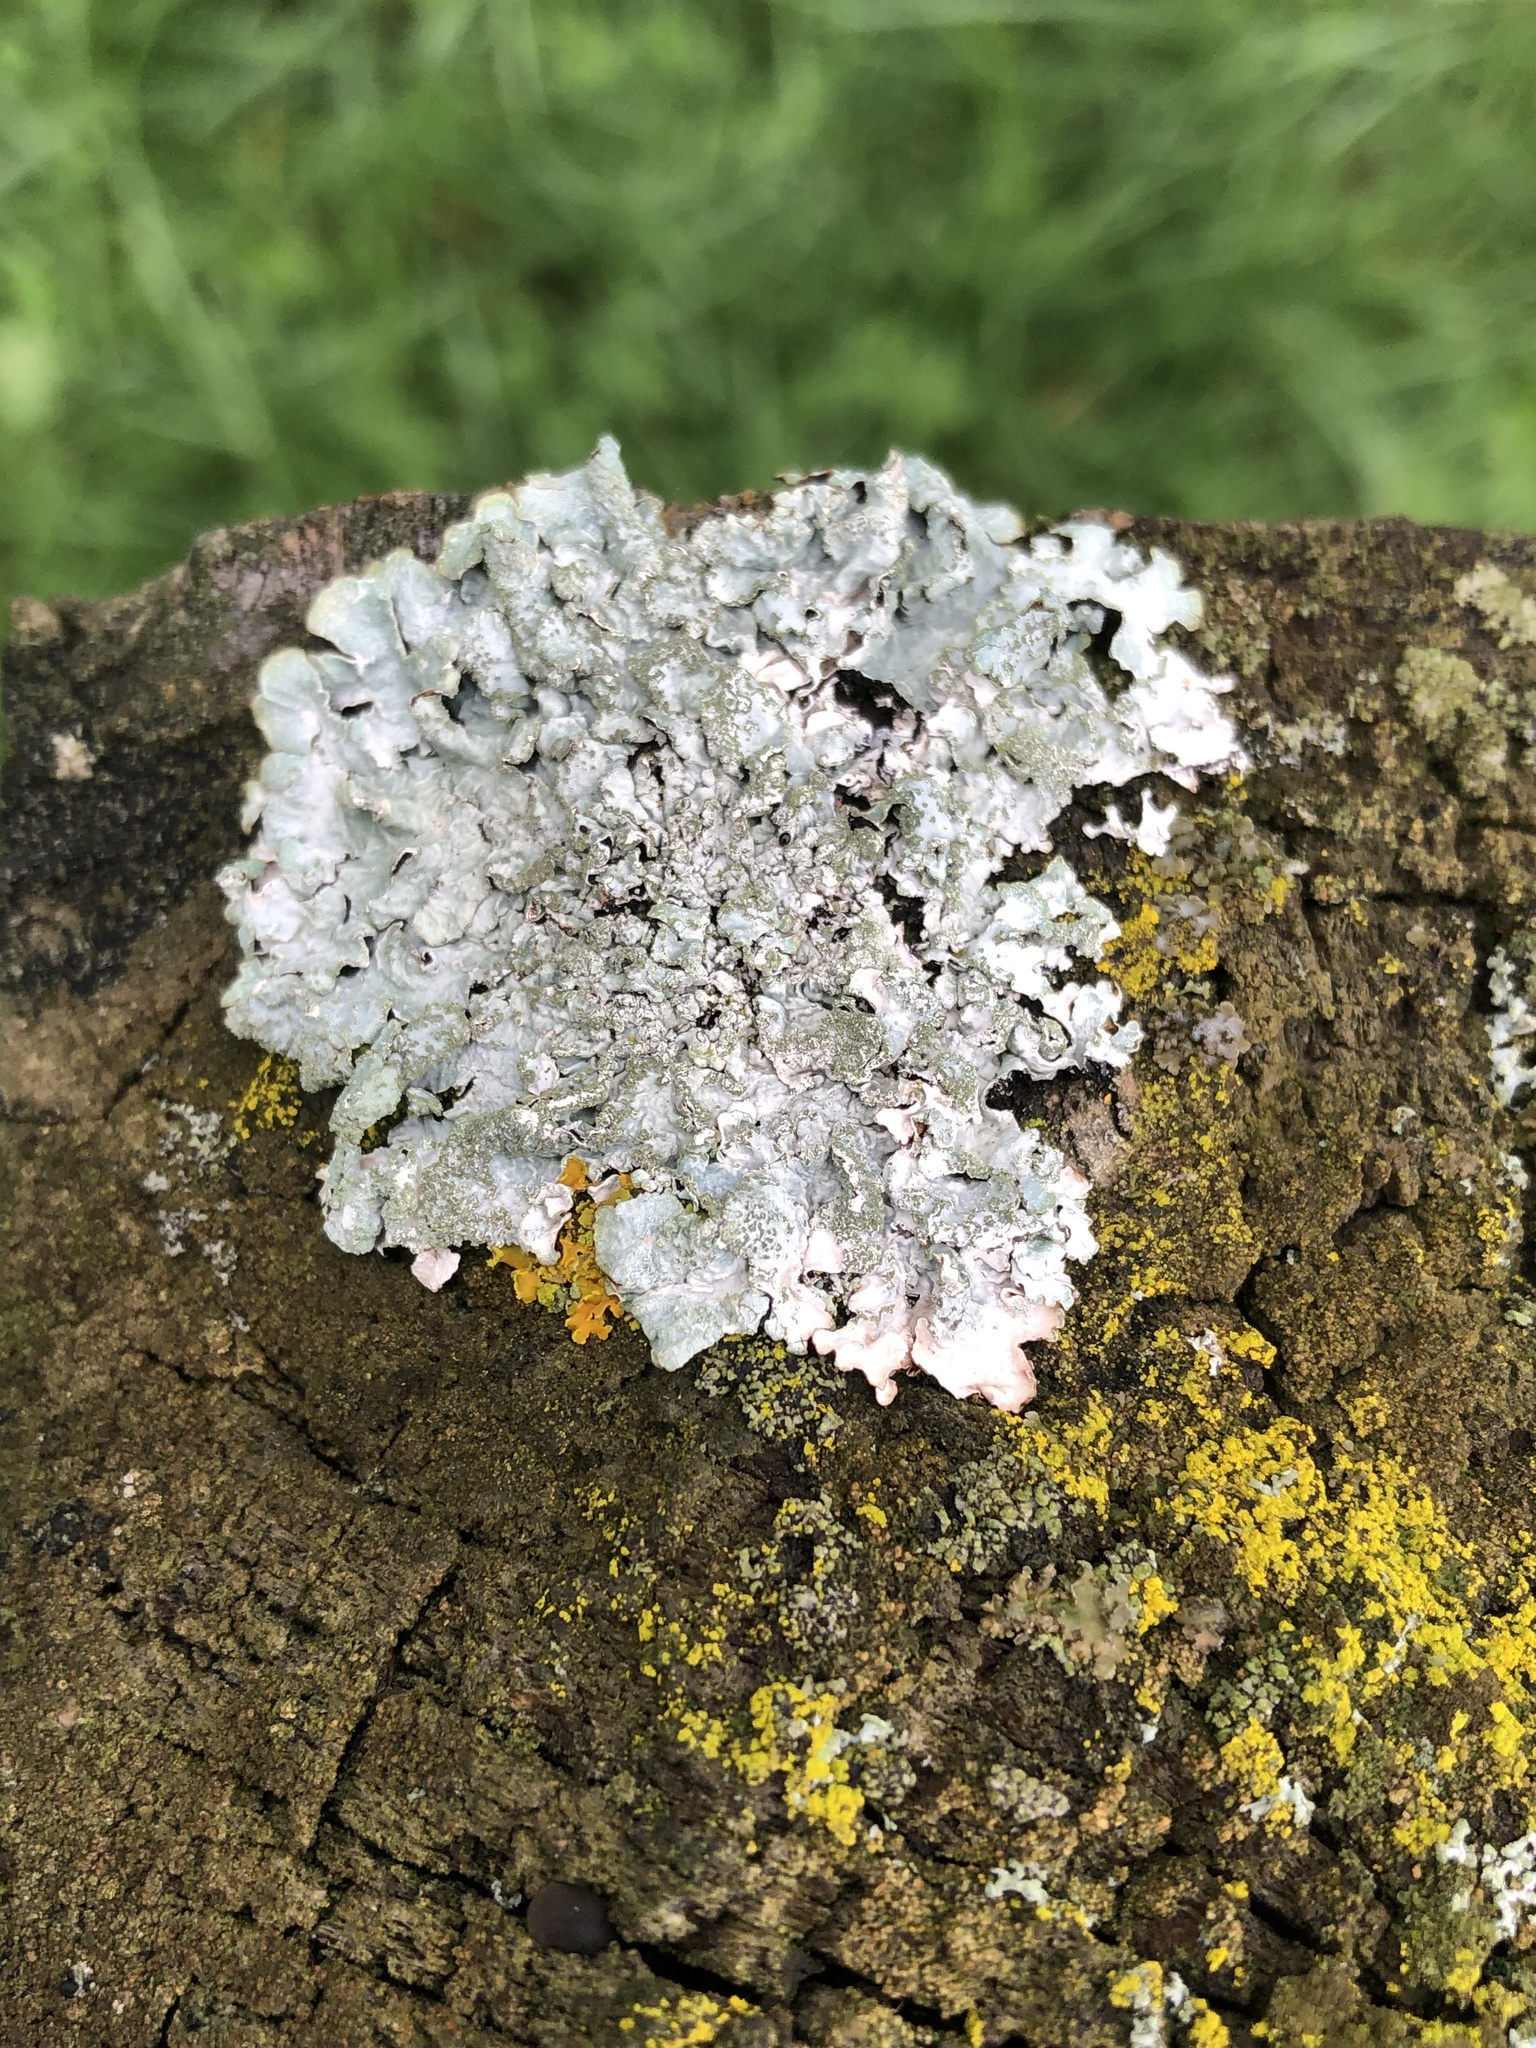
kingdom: Fungi
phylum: Ascomycota
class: Lecanoromycetes
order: Lecanorales
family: Parmeliaceae
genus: Parmelia
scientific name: Parmelia sulcata
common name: Netted shield lichen
